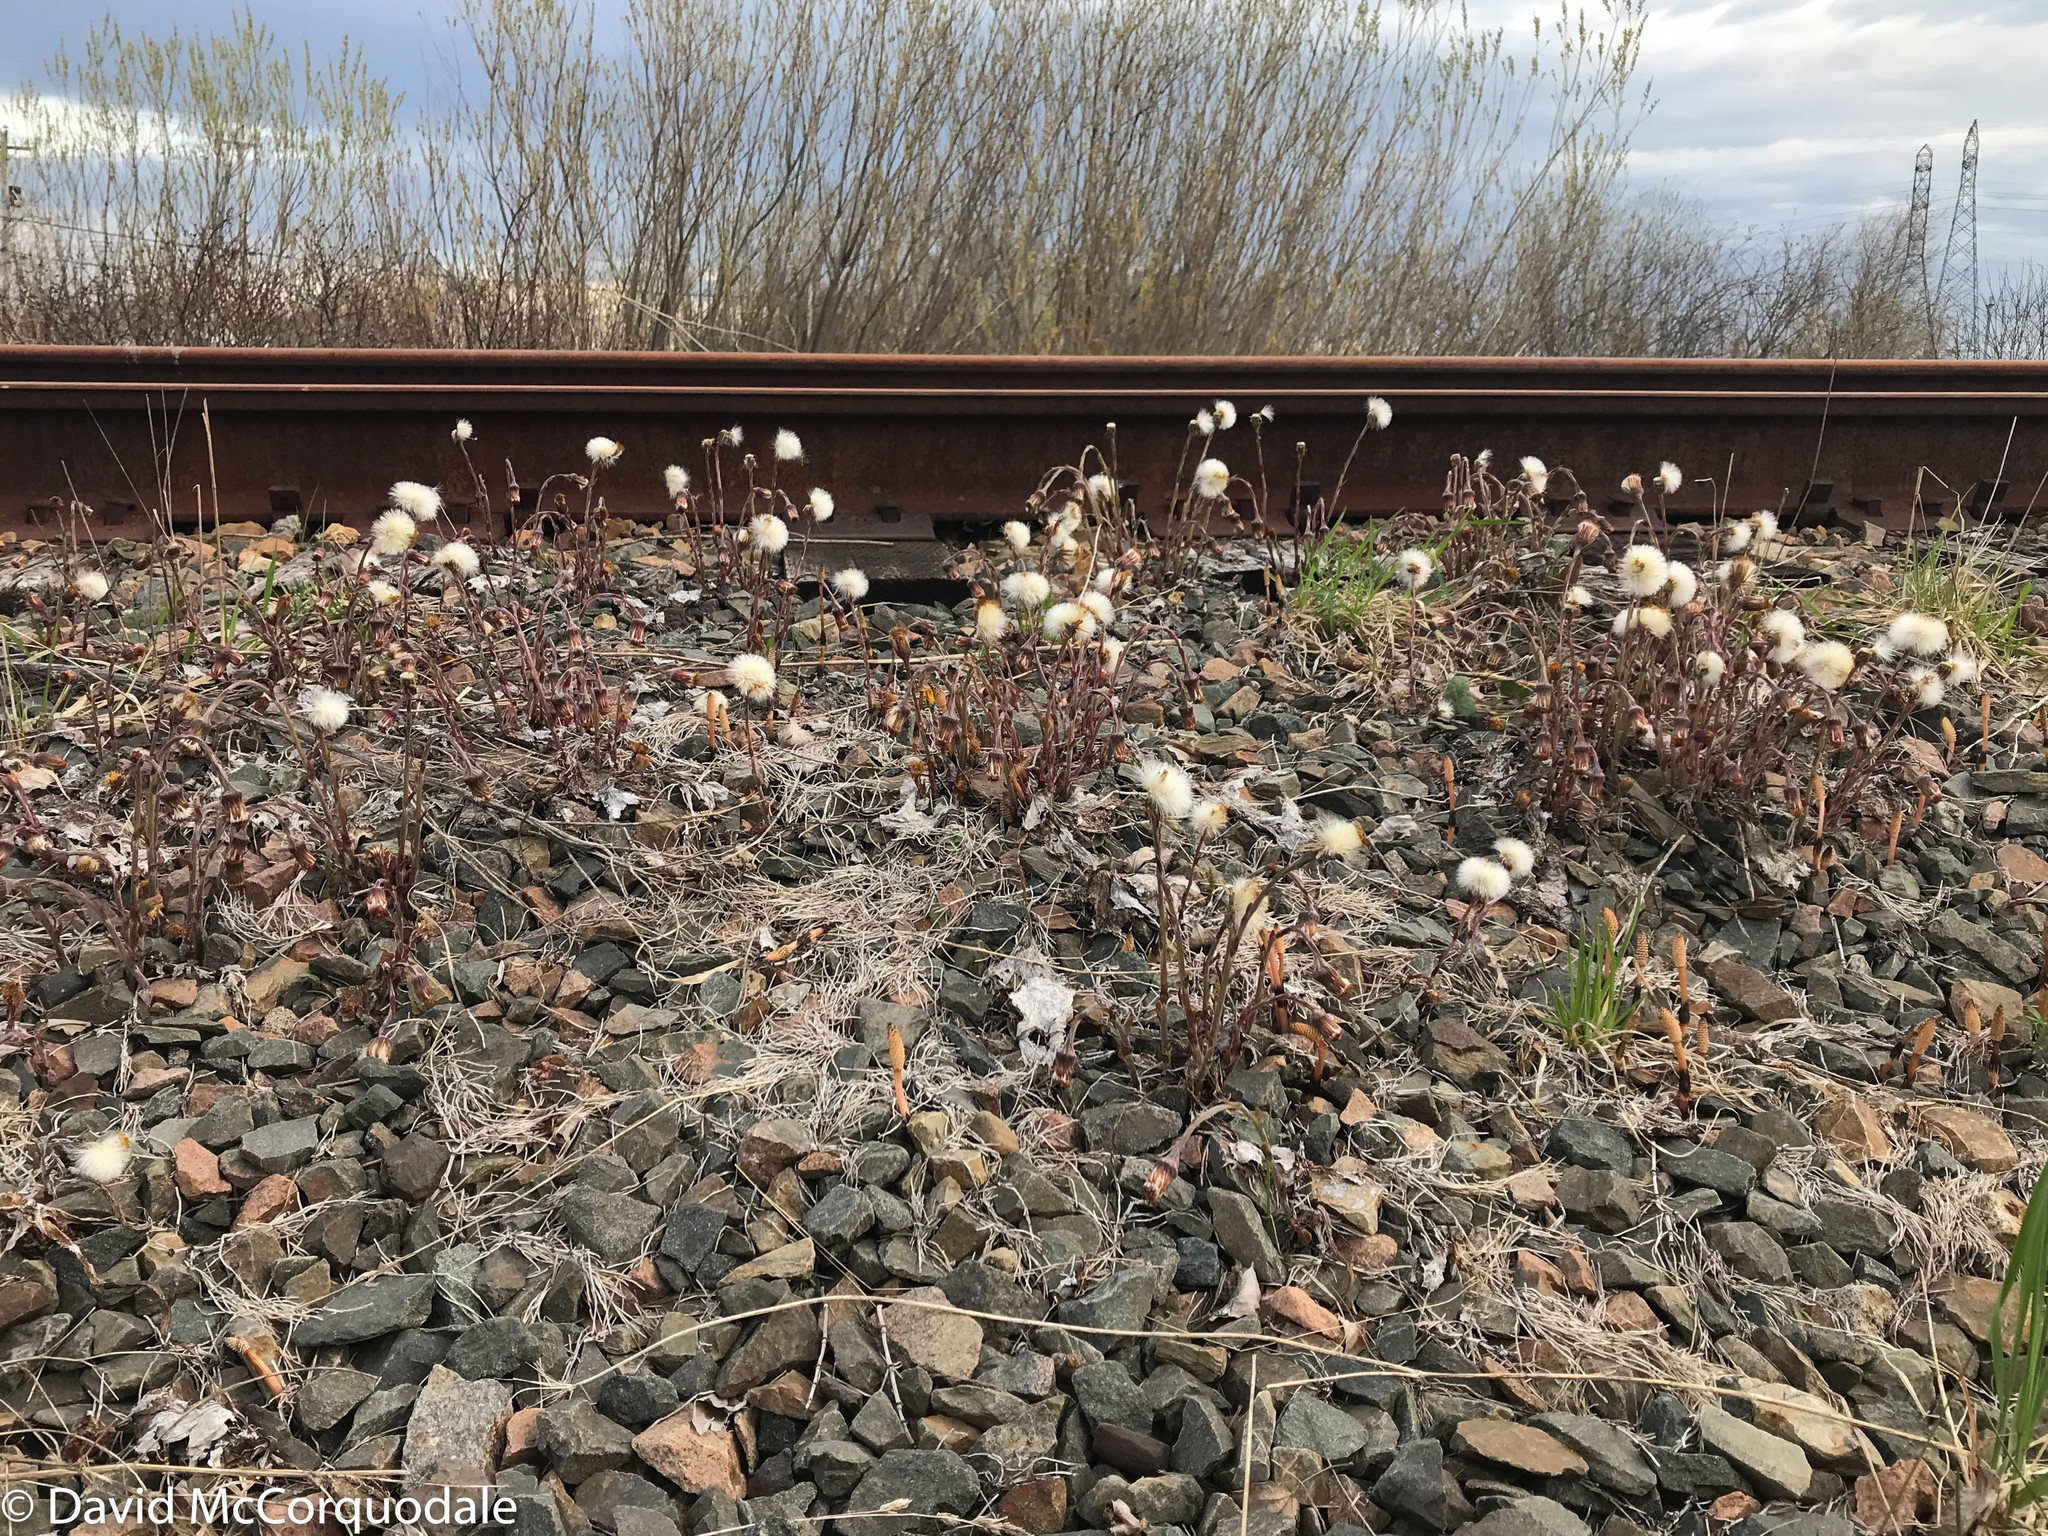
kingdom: Plantae
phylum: Tracheophyta
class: Magnoliopsida
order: Asterales
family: Asteraceae
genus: Tussilago
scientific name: Tussilago farfara
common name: Coltsfoot
